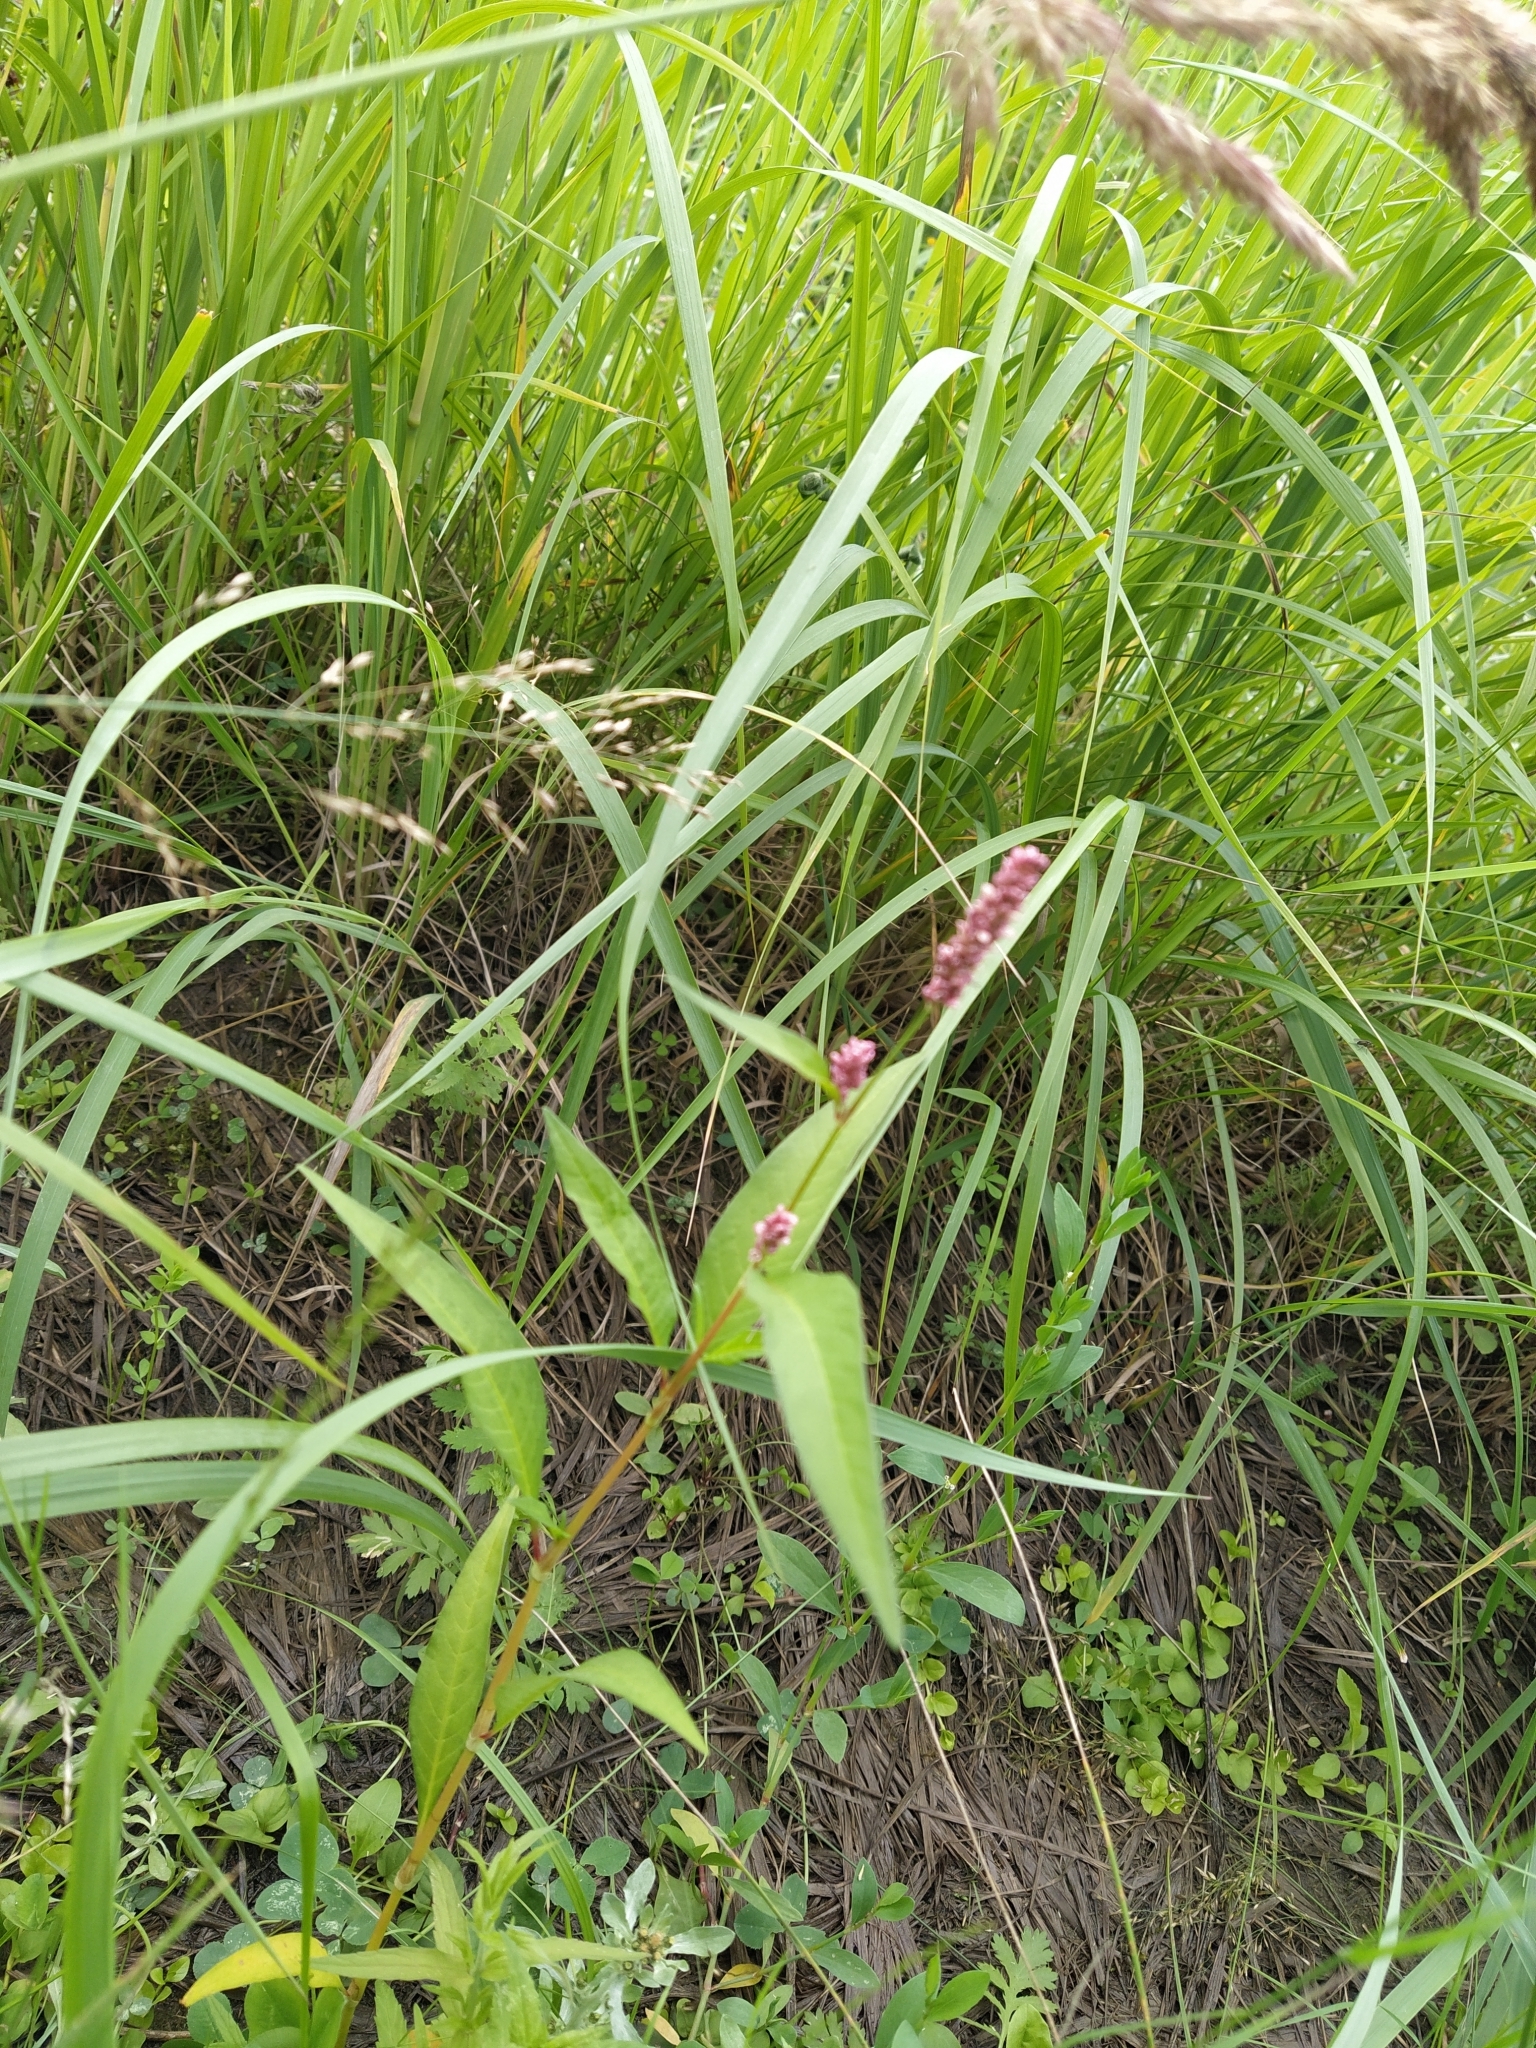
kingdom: Plantae
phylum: Tracheophyta
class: Magnoliopsida
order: Caryophyllales
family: Polygonaceae
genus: Persicaria
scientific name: Persicaria maculosa
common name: Redshank
